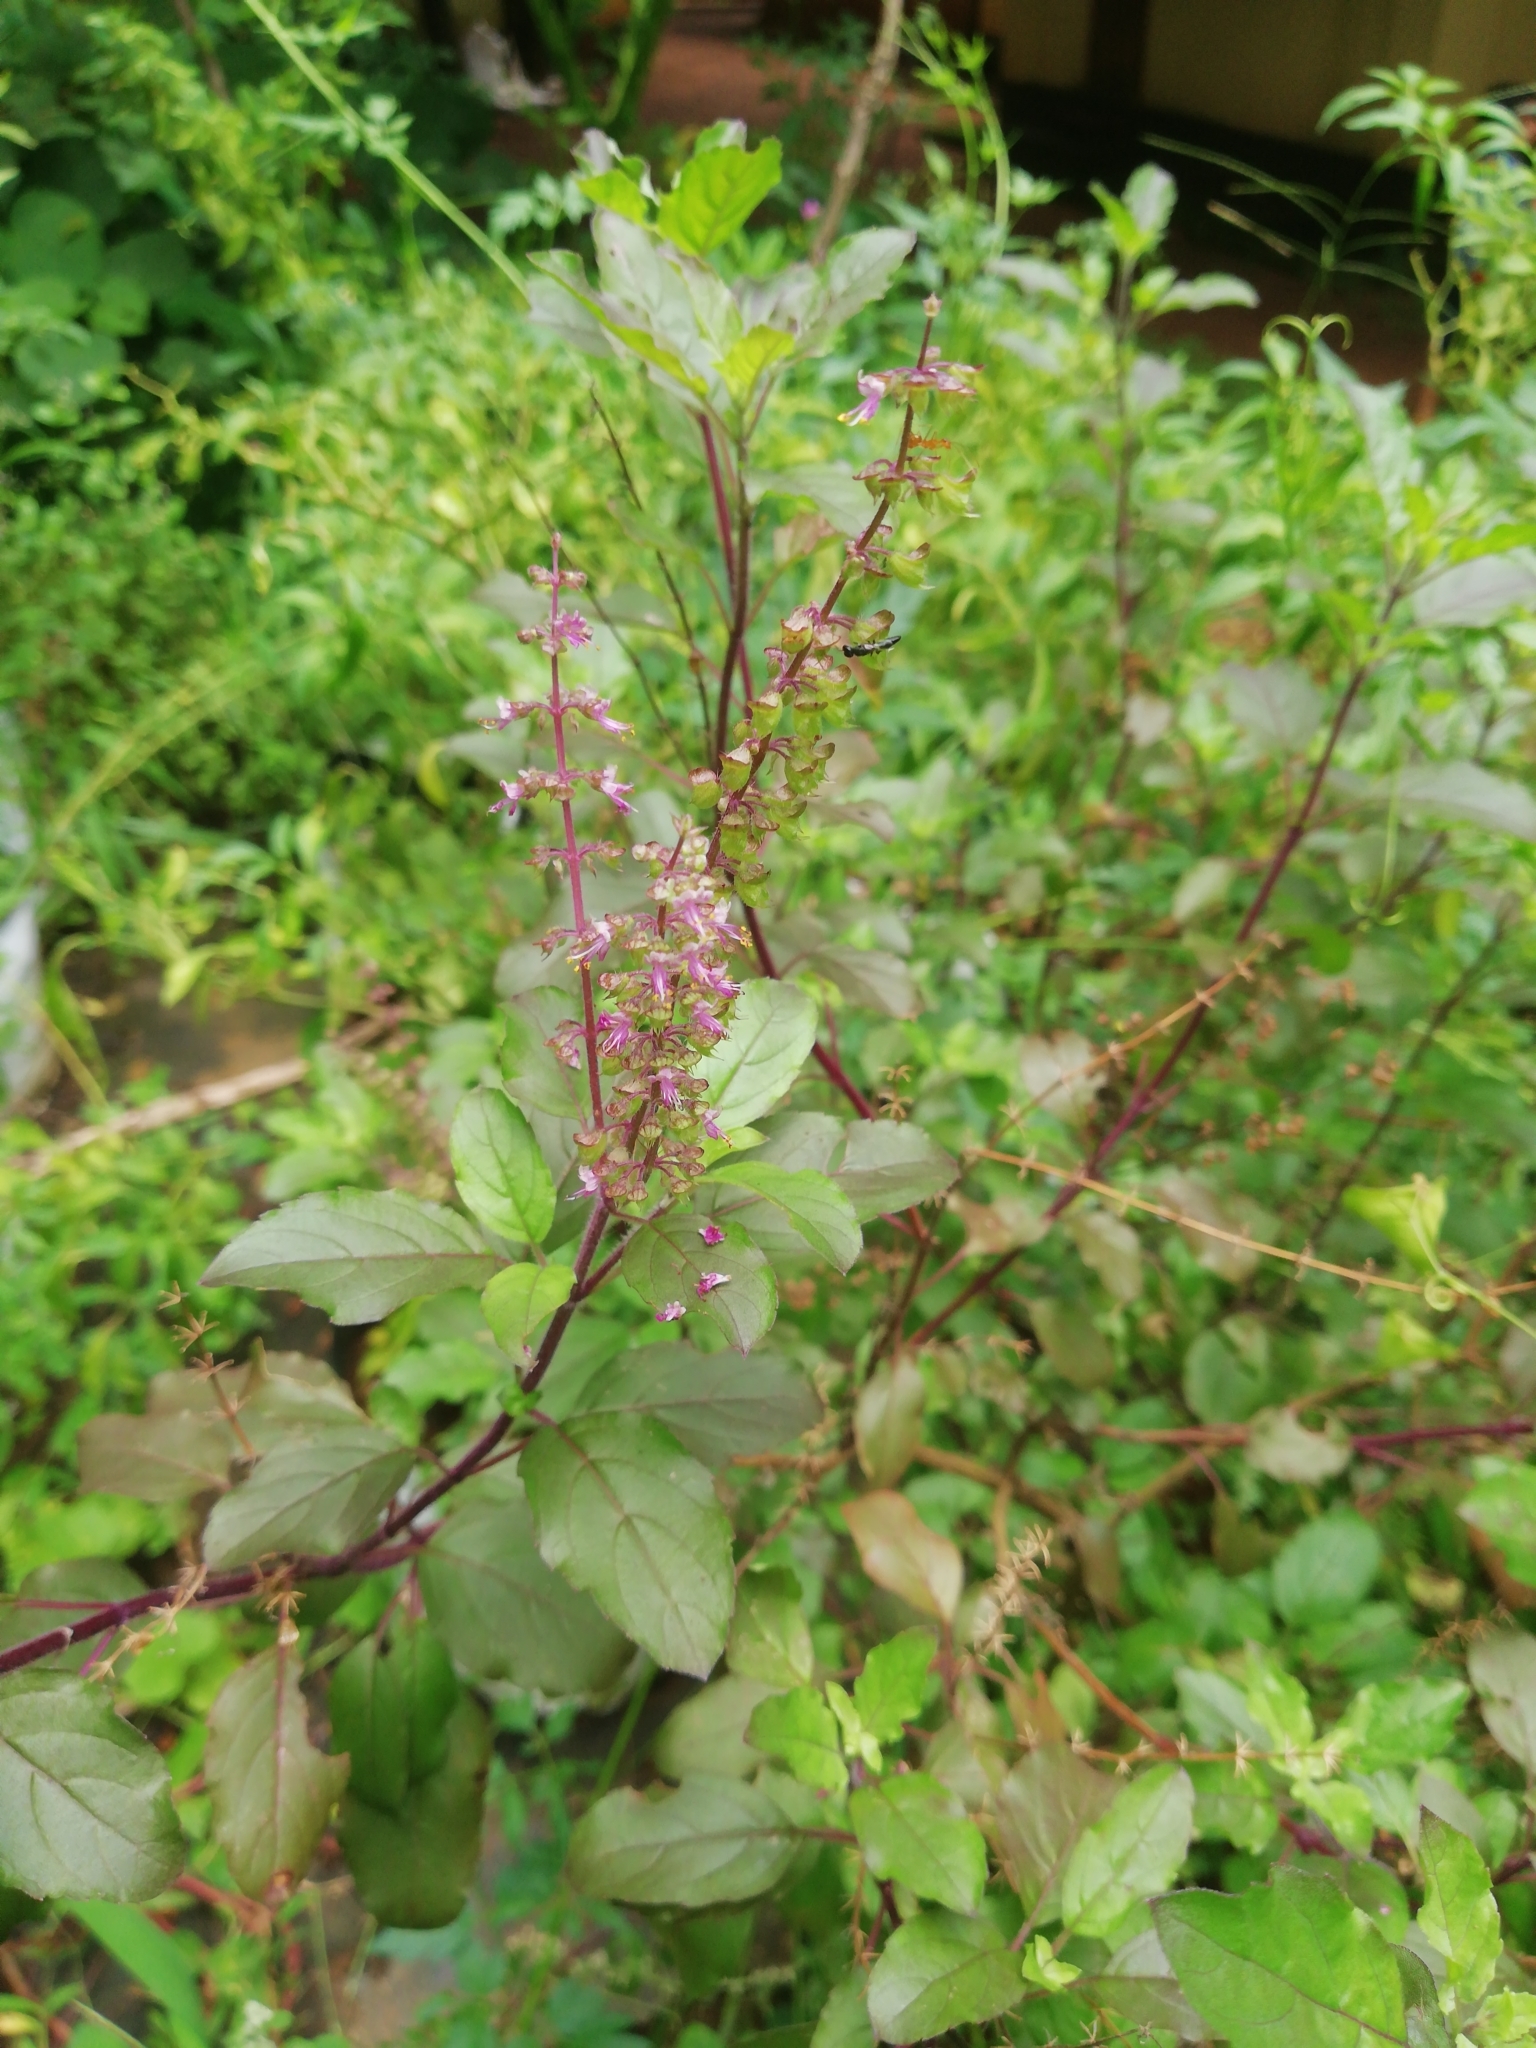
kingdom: Plantae
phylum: Tracheophyta
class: Magnoliopsida
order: Lamiales
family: Lamiaceae
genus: Ocimum
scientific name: Ocimum tenuiflorum
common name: Sacred basil
